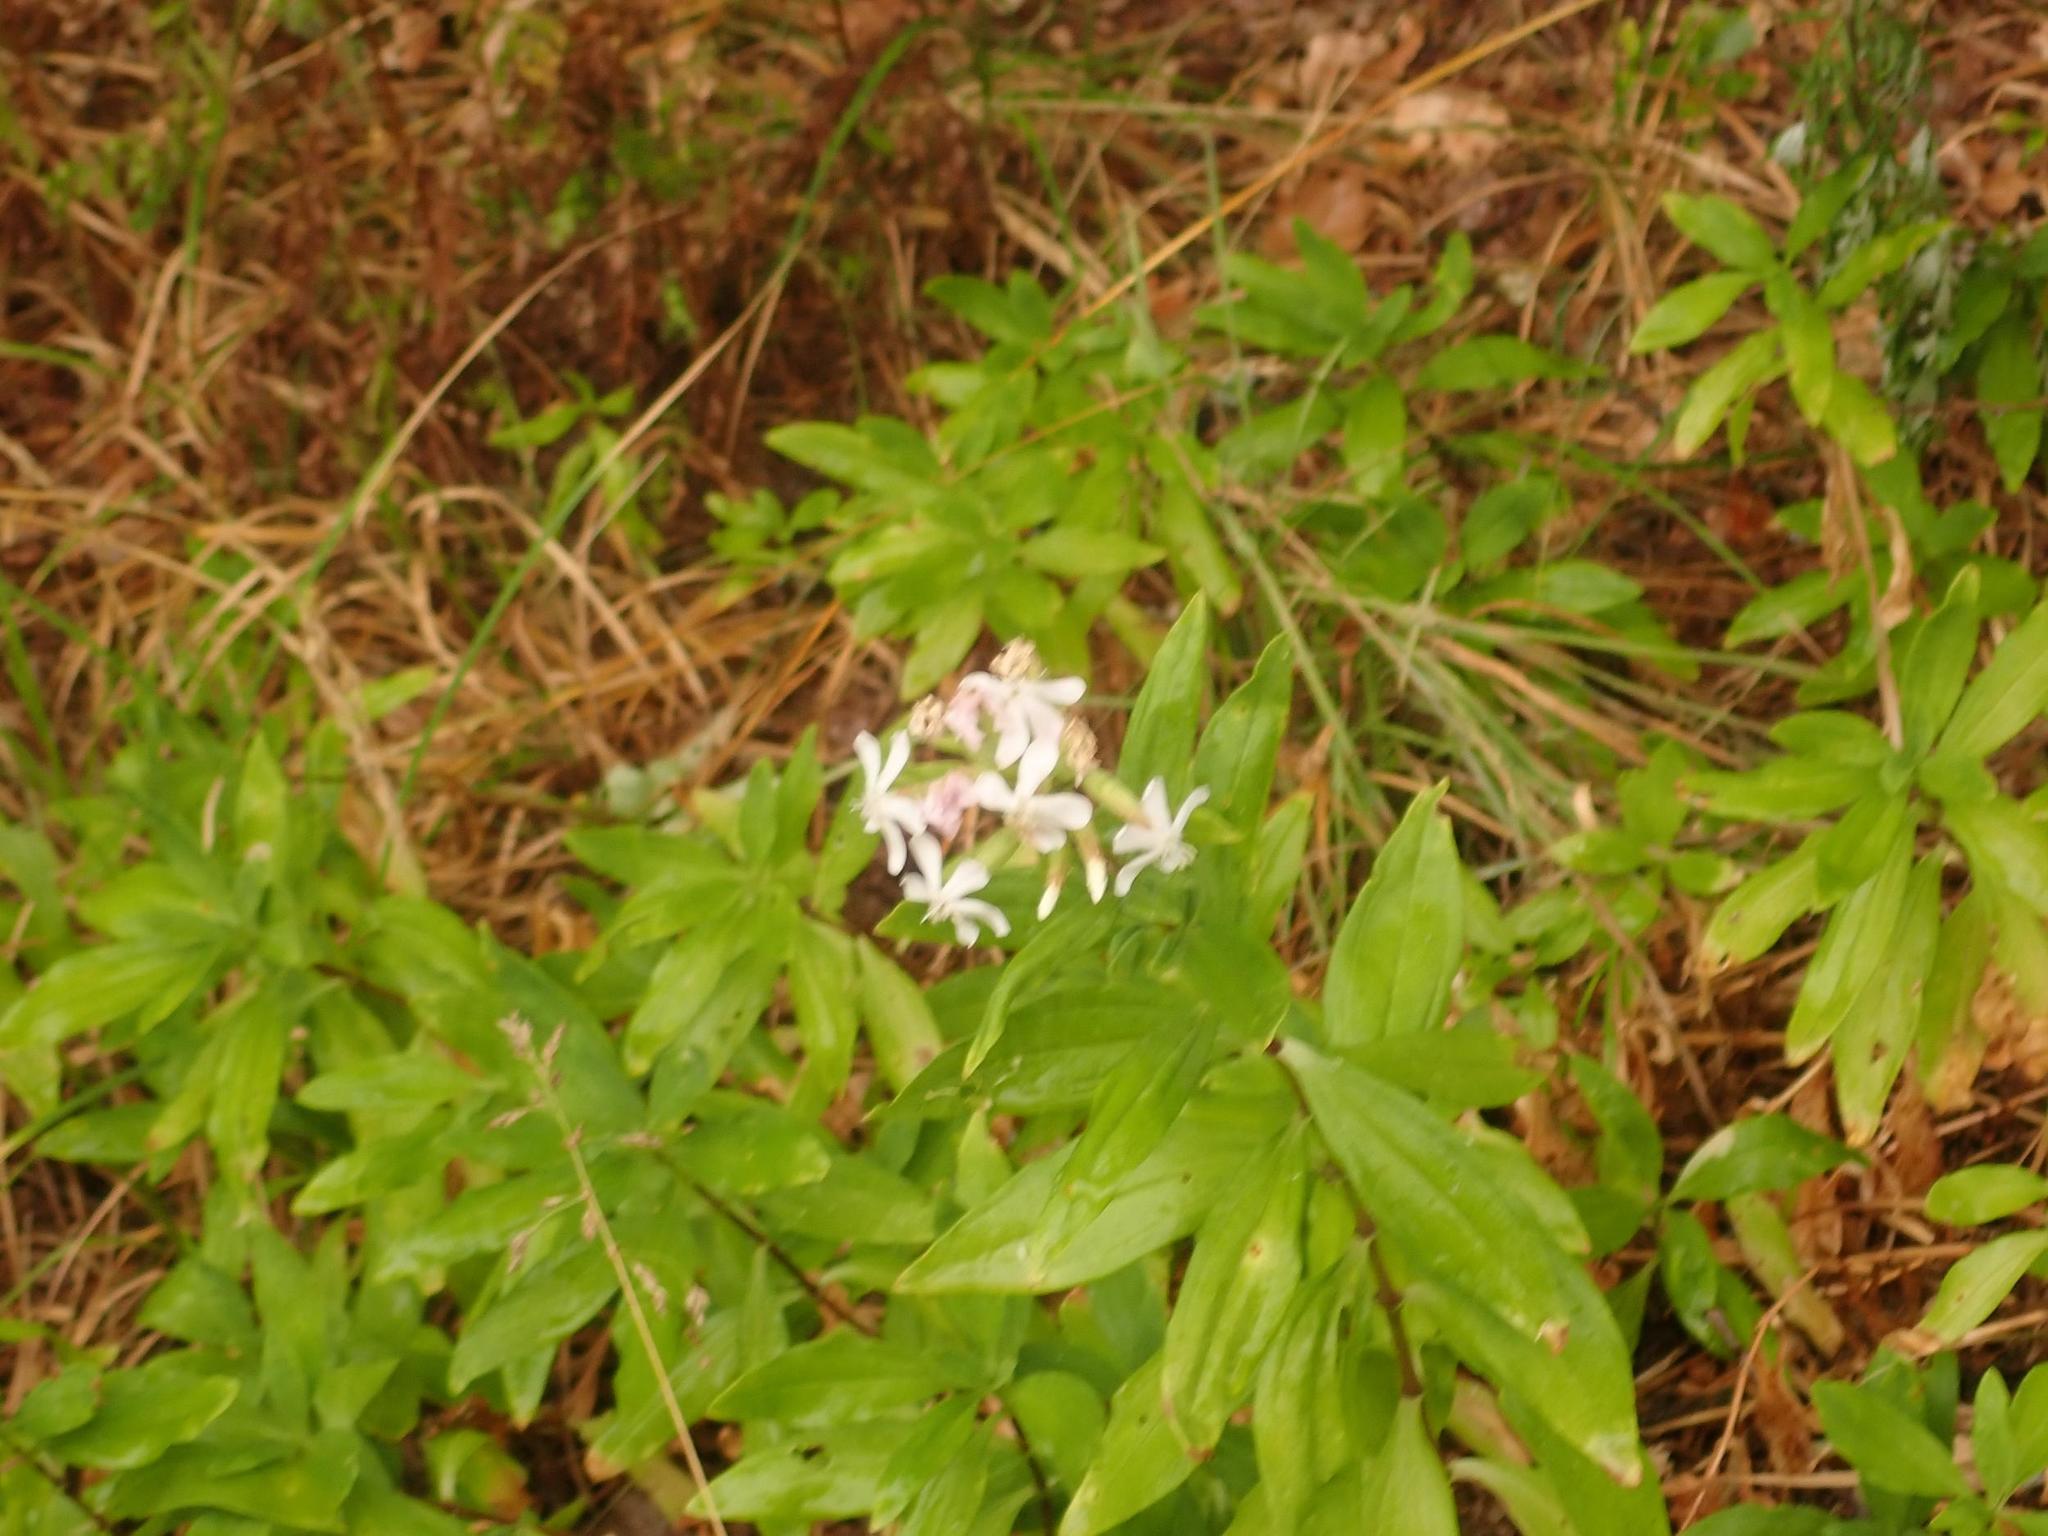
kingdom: Plantae
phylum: Tracheophyta
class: Magnoliopsida
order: Caryophyllales
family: Caryophyllaceae
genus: Saponaria
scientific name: Saponaria officinalis
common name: Soapwort
